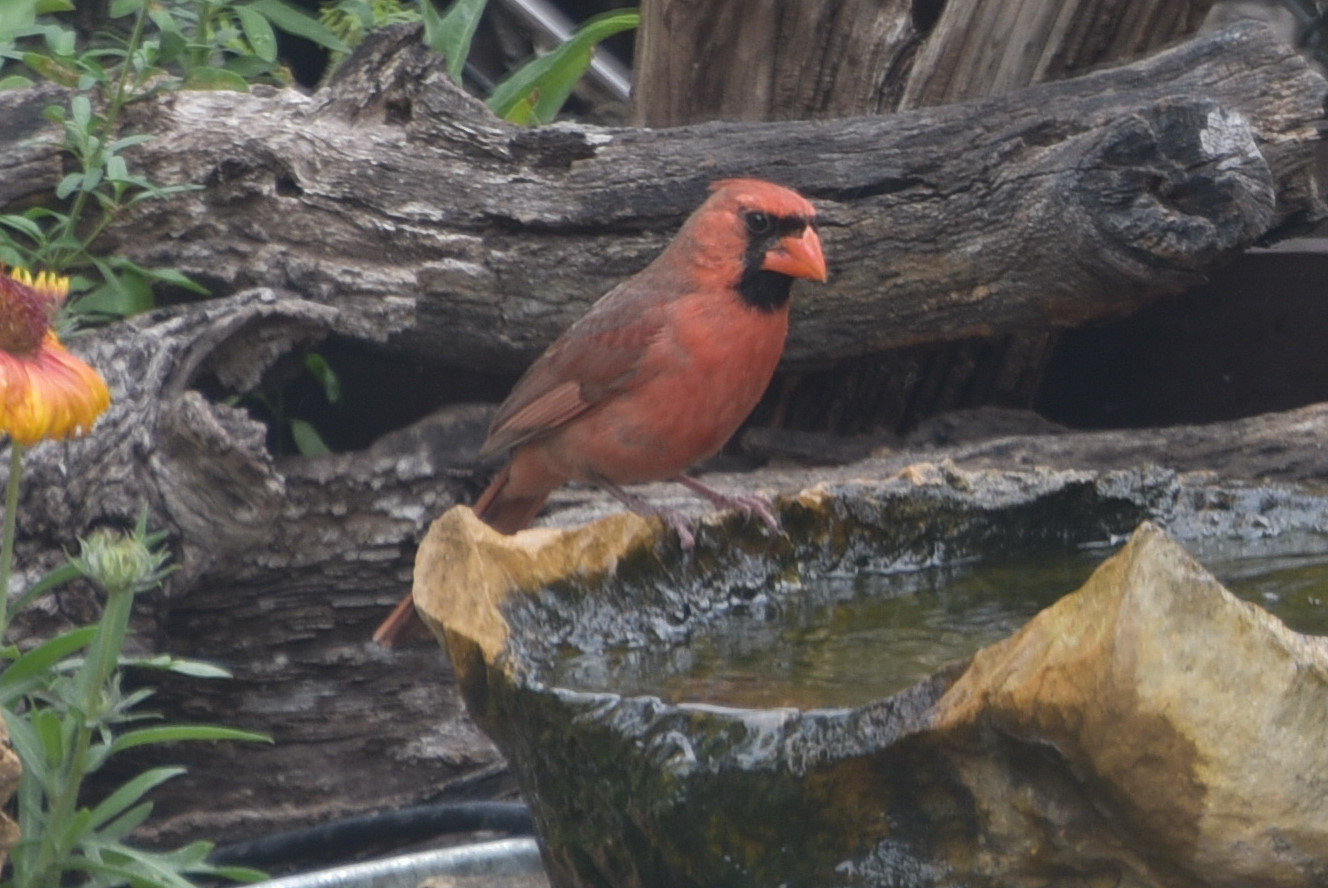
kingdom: Animalia
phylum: Chordata
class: Aves
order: Passeriformes
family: Cardinalidae
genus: Cardinalis
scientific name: Cardinalis cardinalis
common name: Northern cardinal
